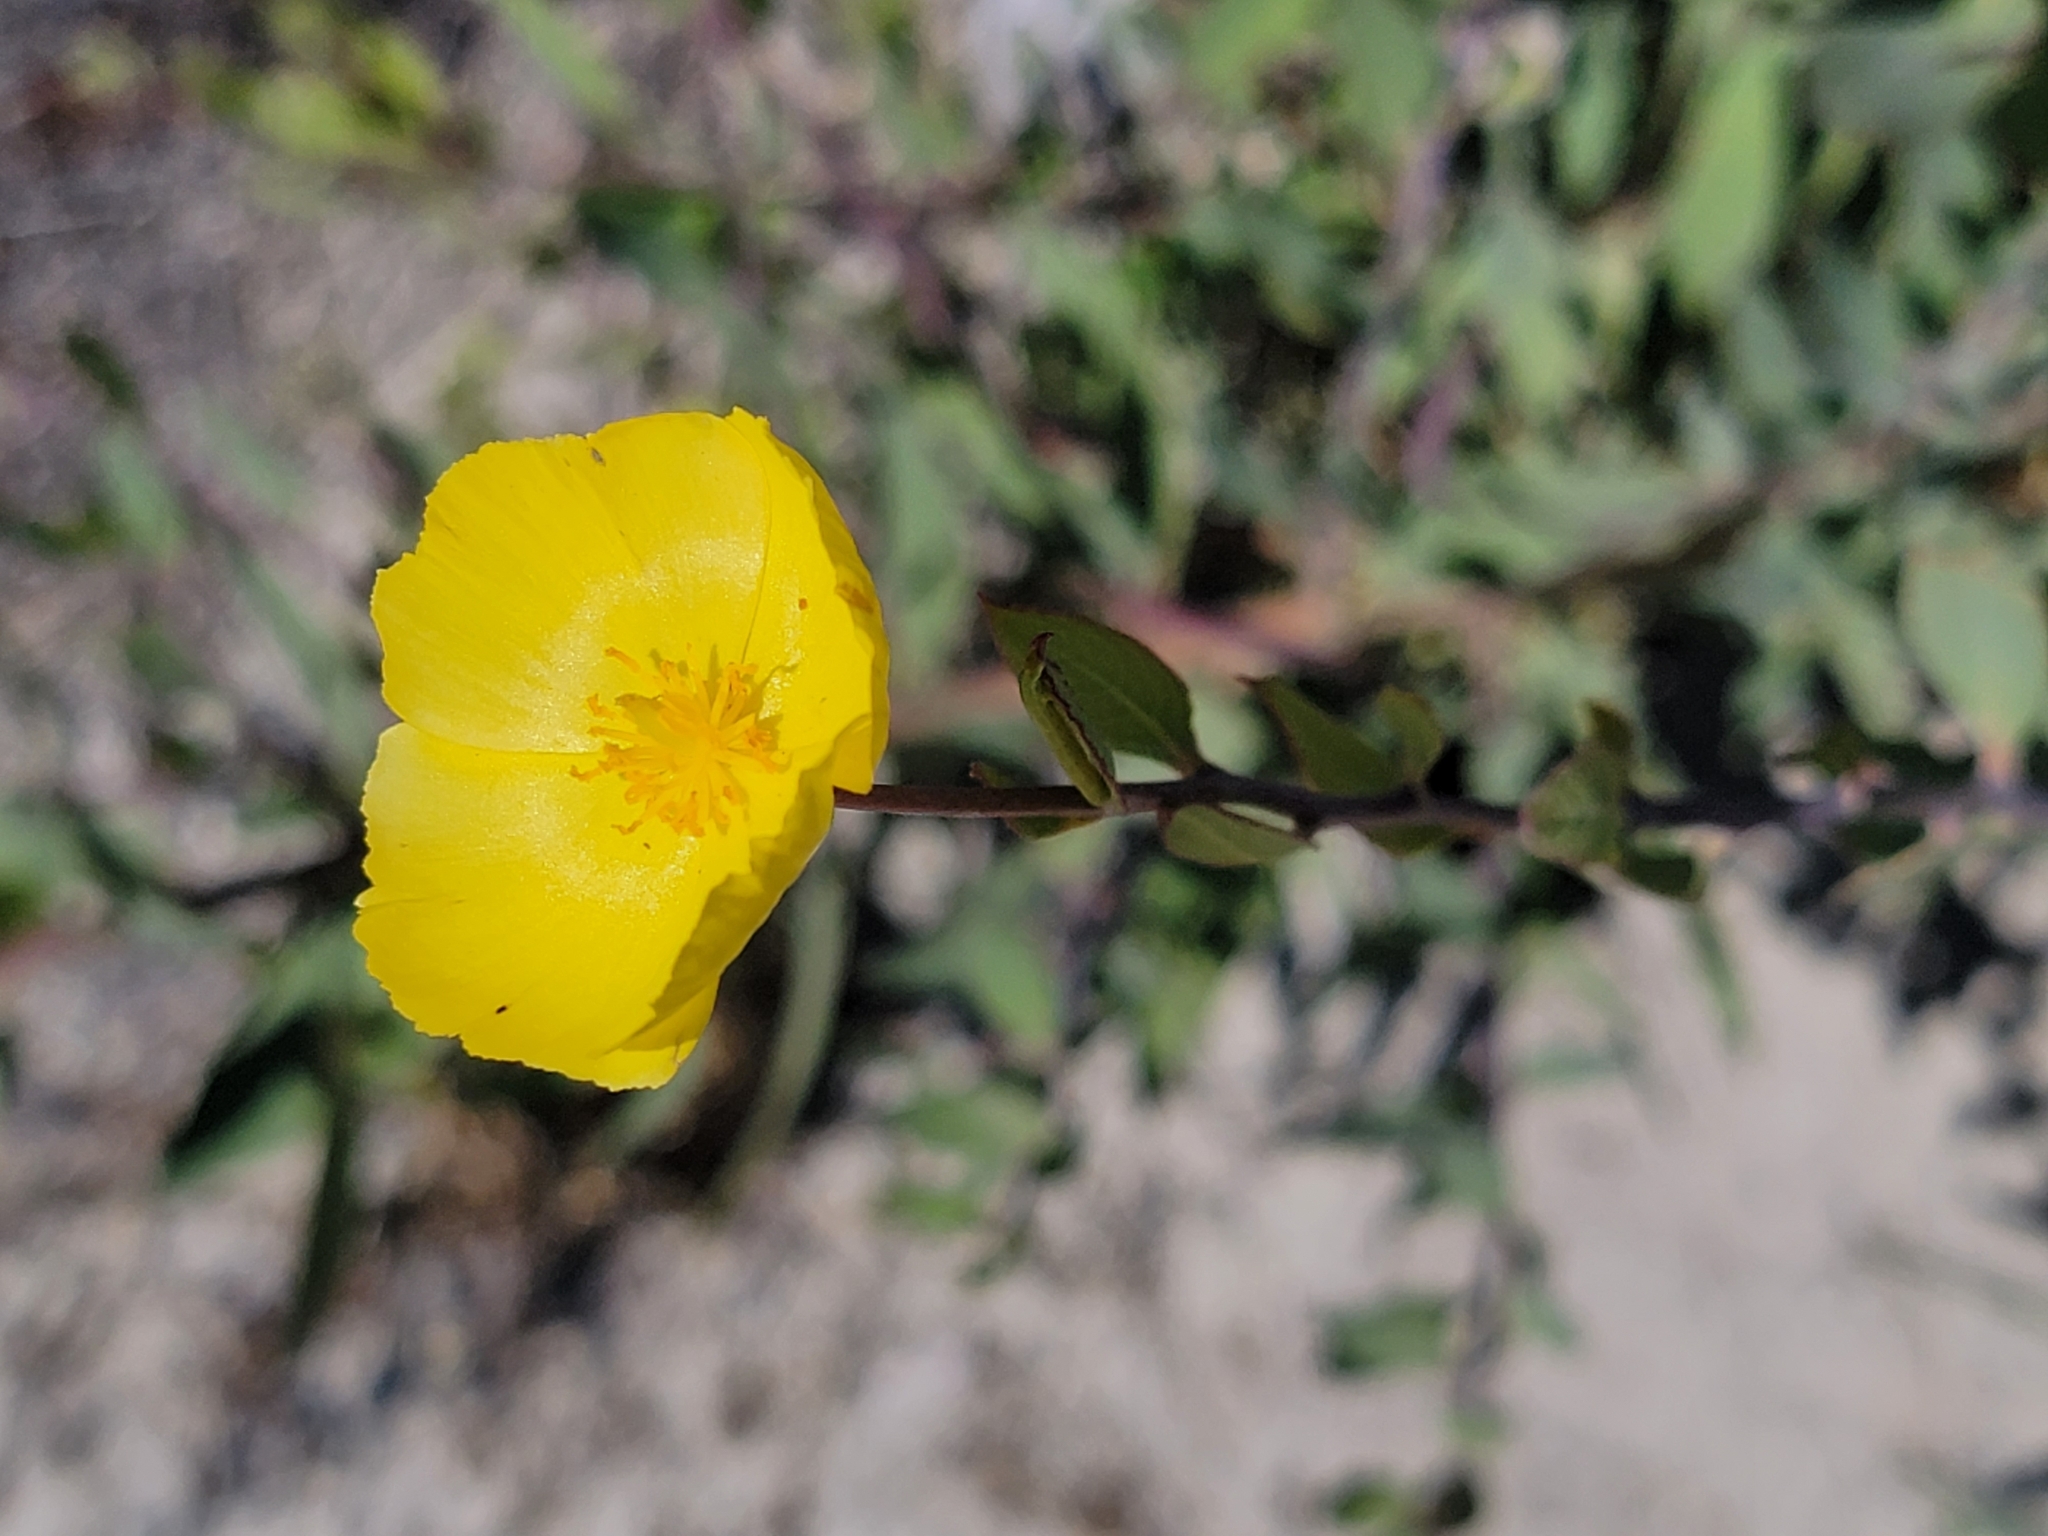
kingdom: Plantae
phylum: Tracheophyta
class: Magnoliopsida
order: Ranunculales
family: Papaveraceae
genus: Dendromecon
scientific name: Dendromecon rigida
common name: Tree poppy
